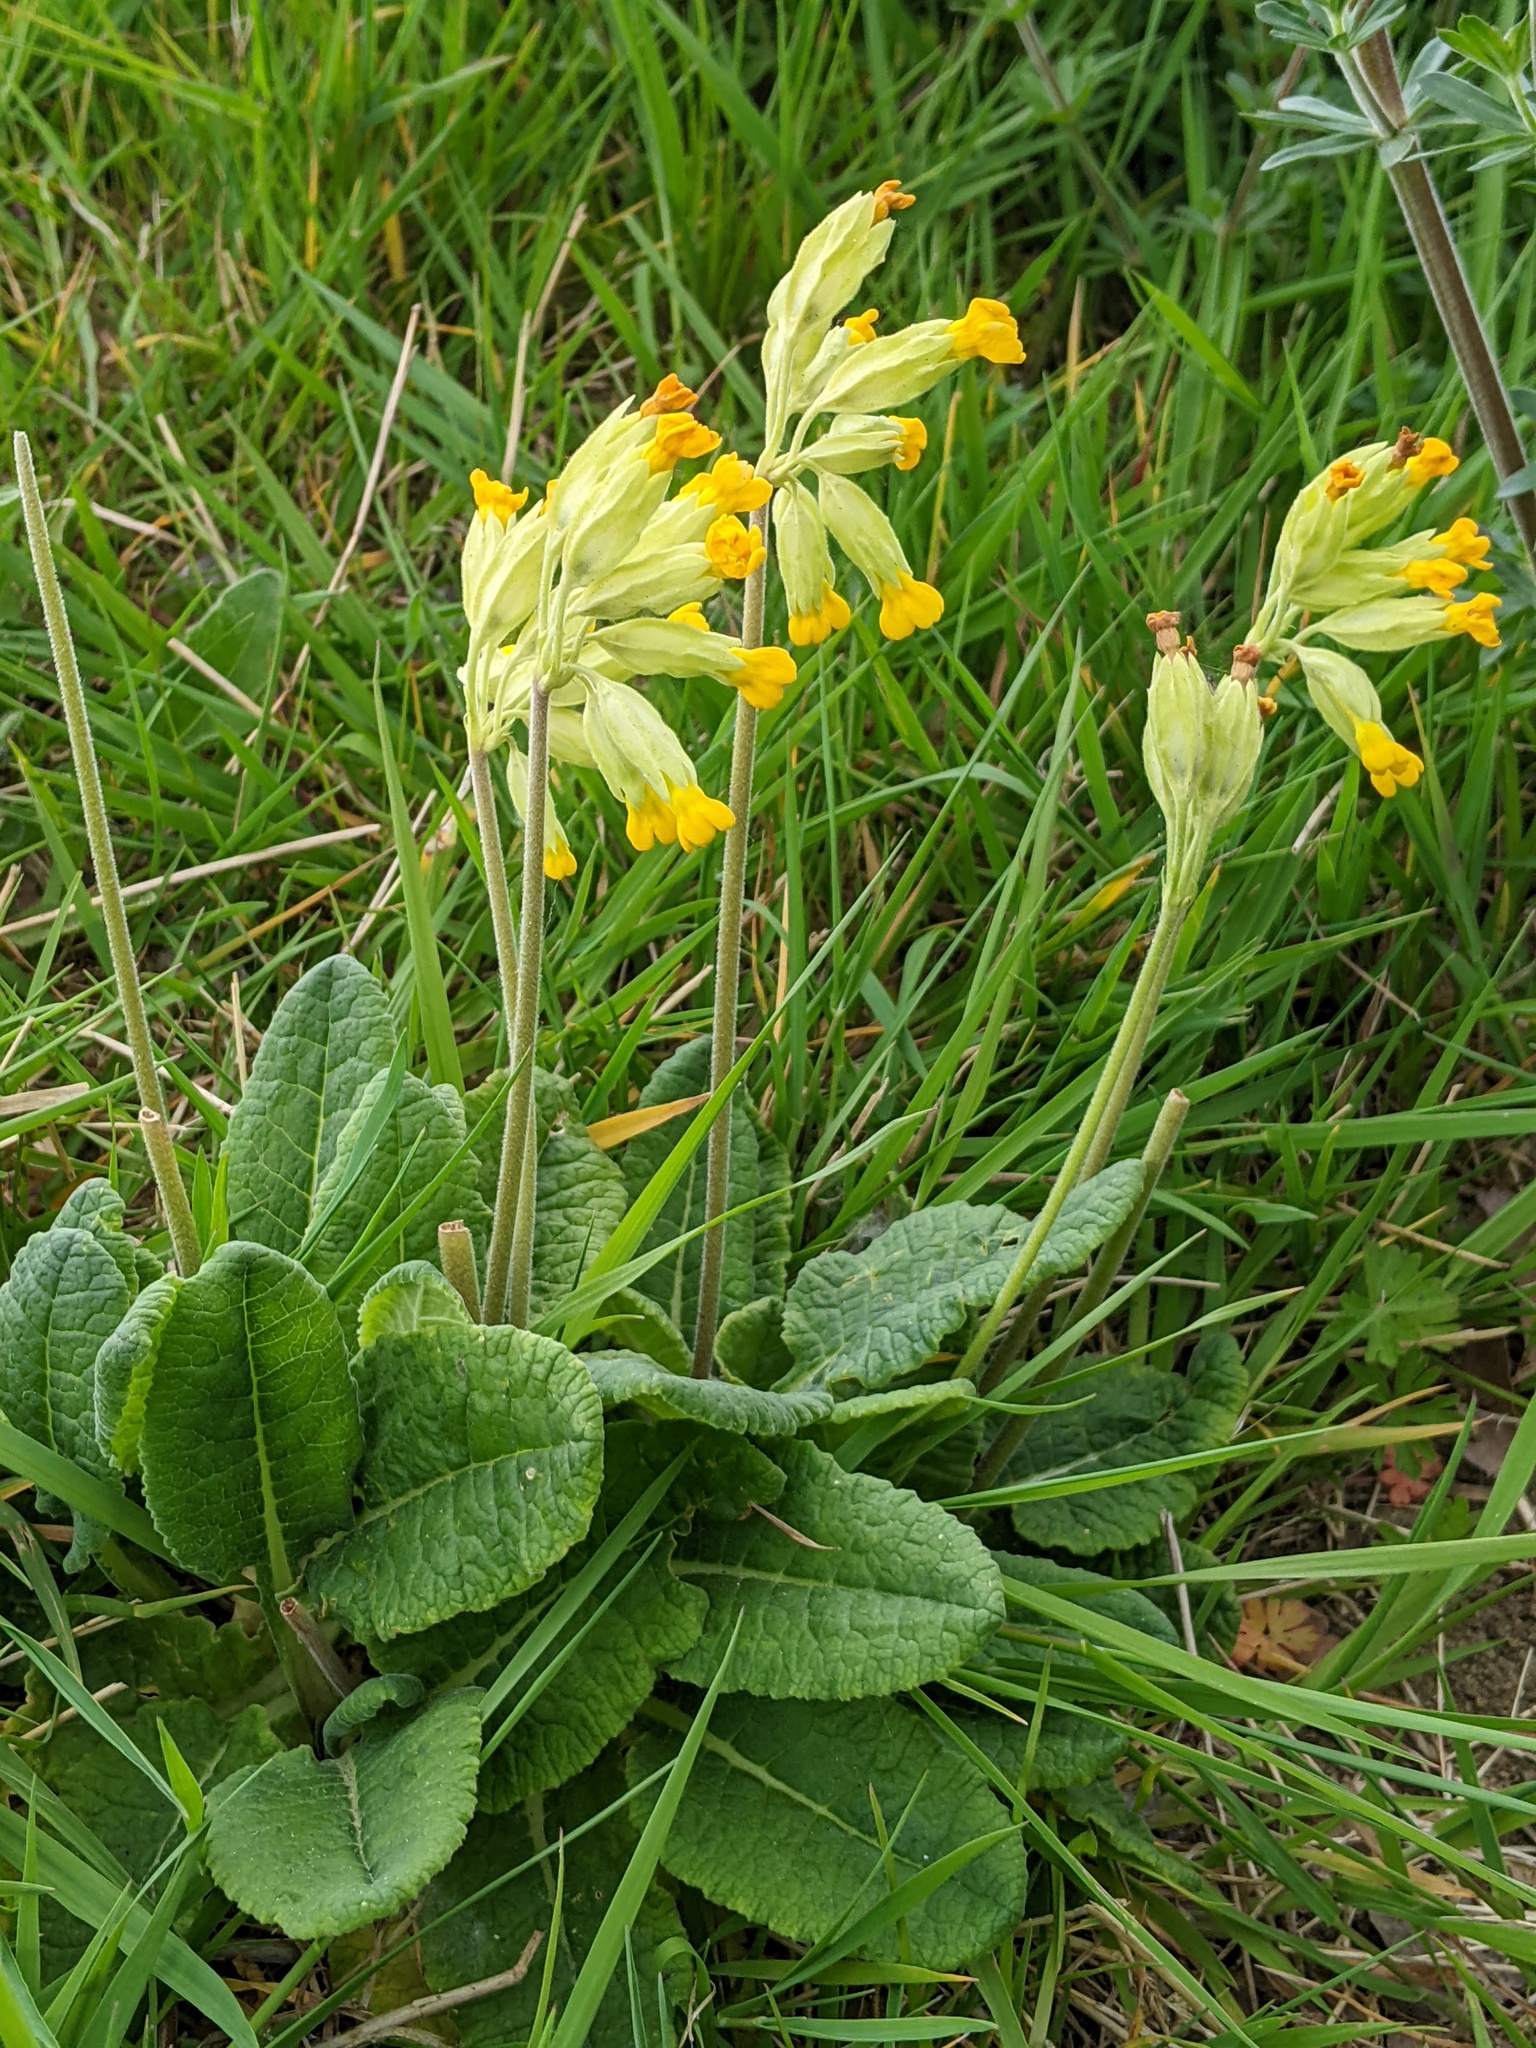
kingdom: Plantae
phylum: Tracheophyta
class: Magnoliopsida
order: Ericales
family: Primulaceae
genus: Primula
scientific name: Primula veris
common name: Cowslip
